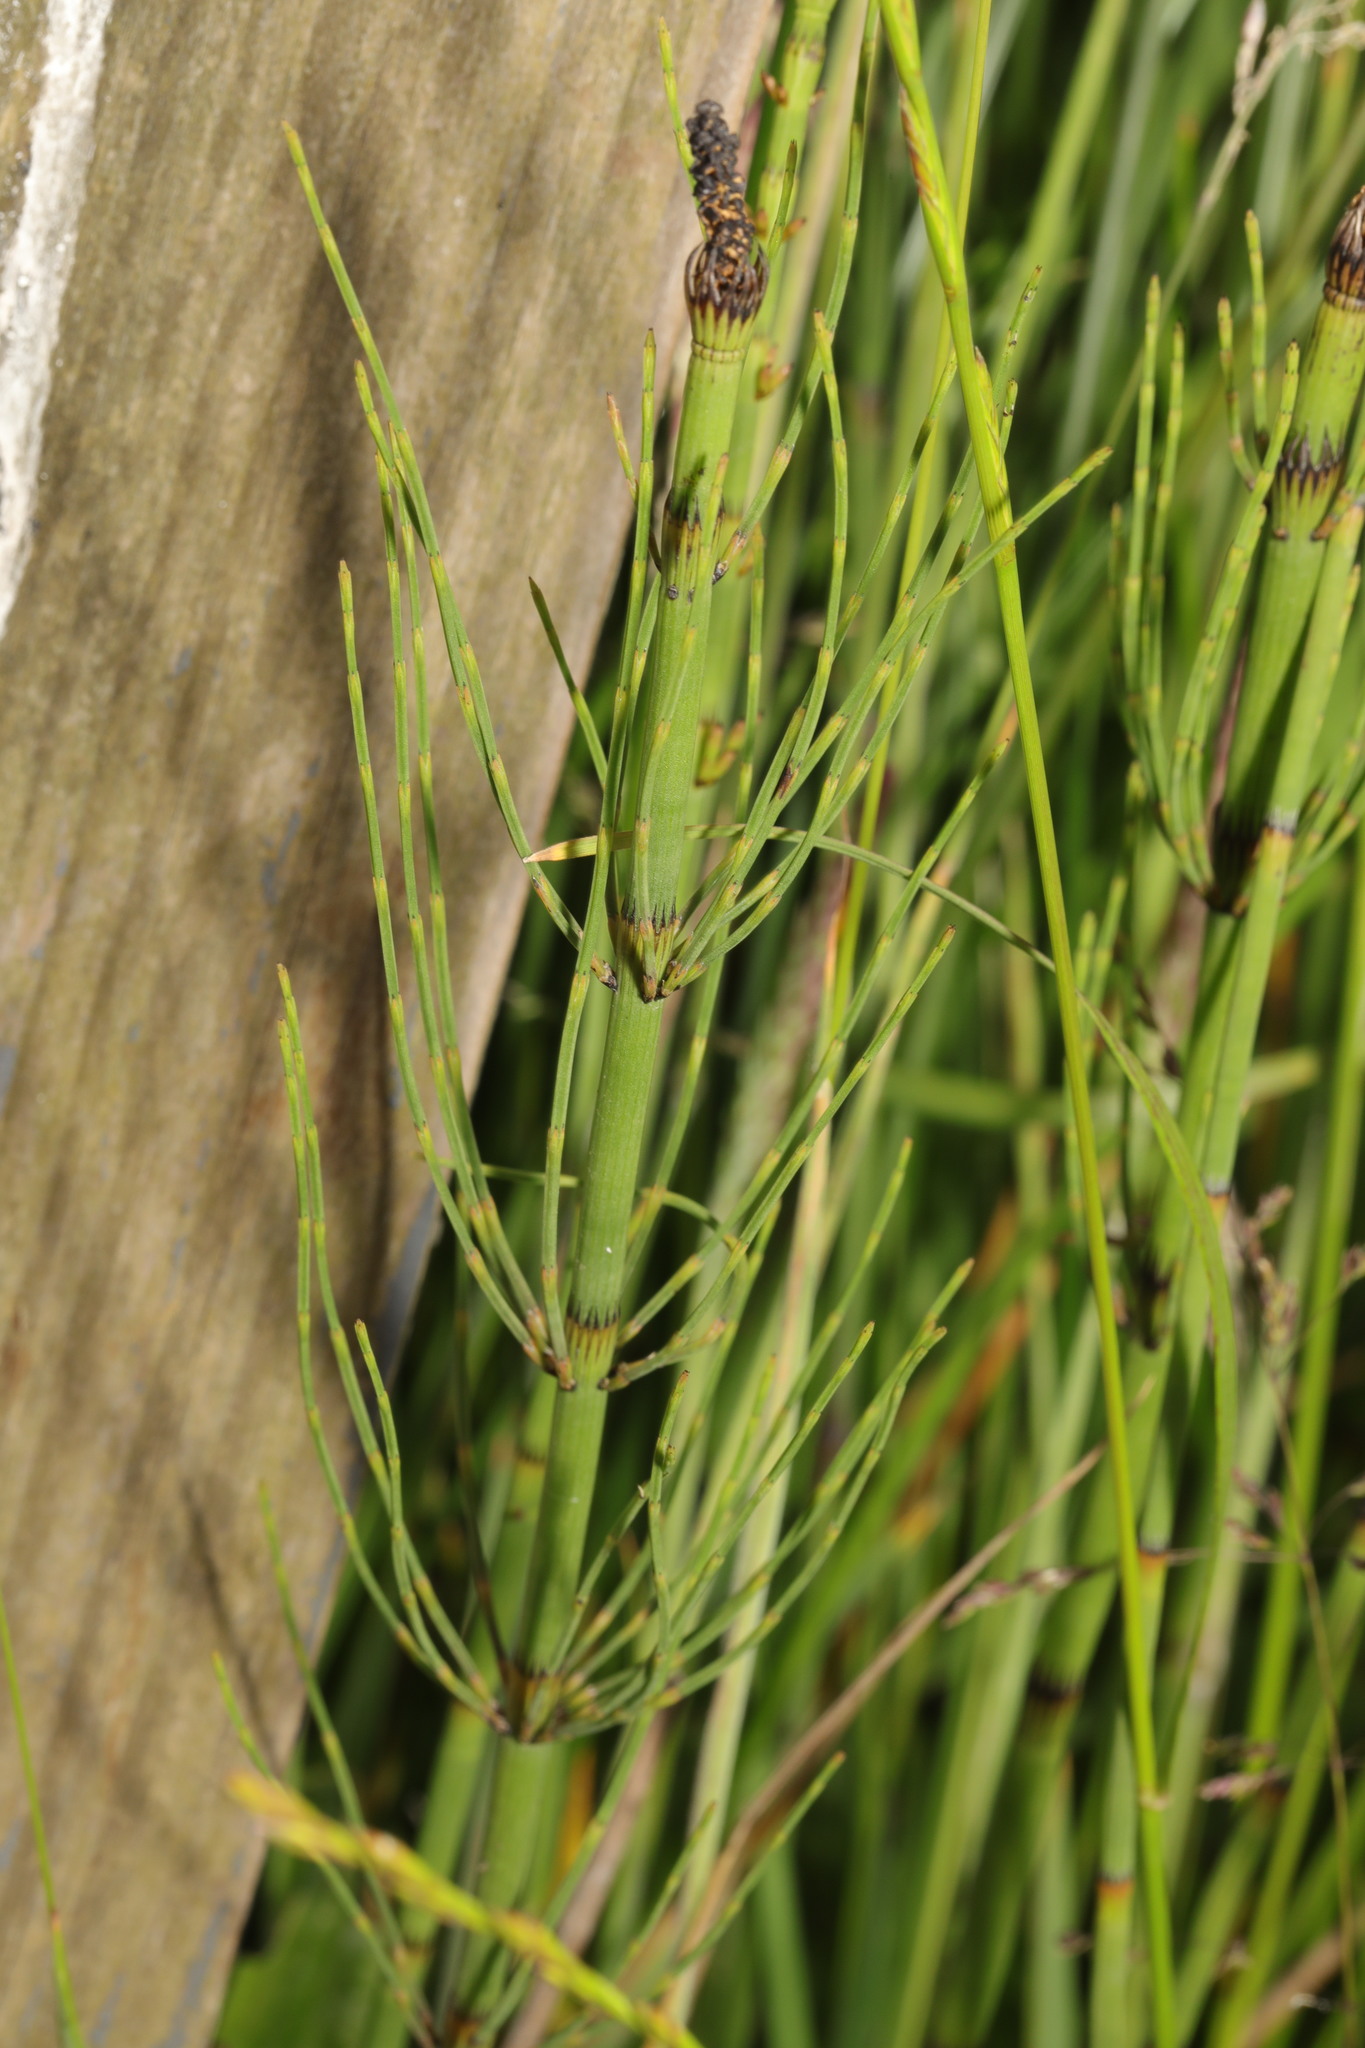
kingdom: Plantae
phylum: Tracheophyta
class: Polypodiopsida
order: Equisetales
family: Equisetaceae
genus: Equisetum
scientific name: Equisetum fluviatile
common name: Water horsetail
